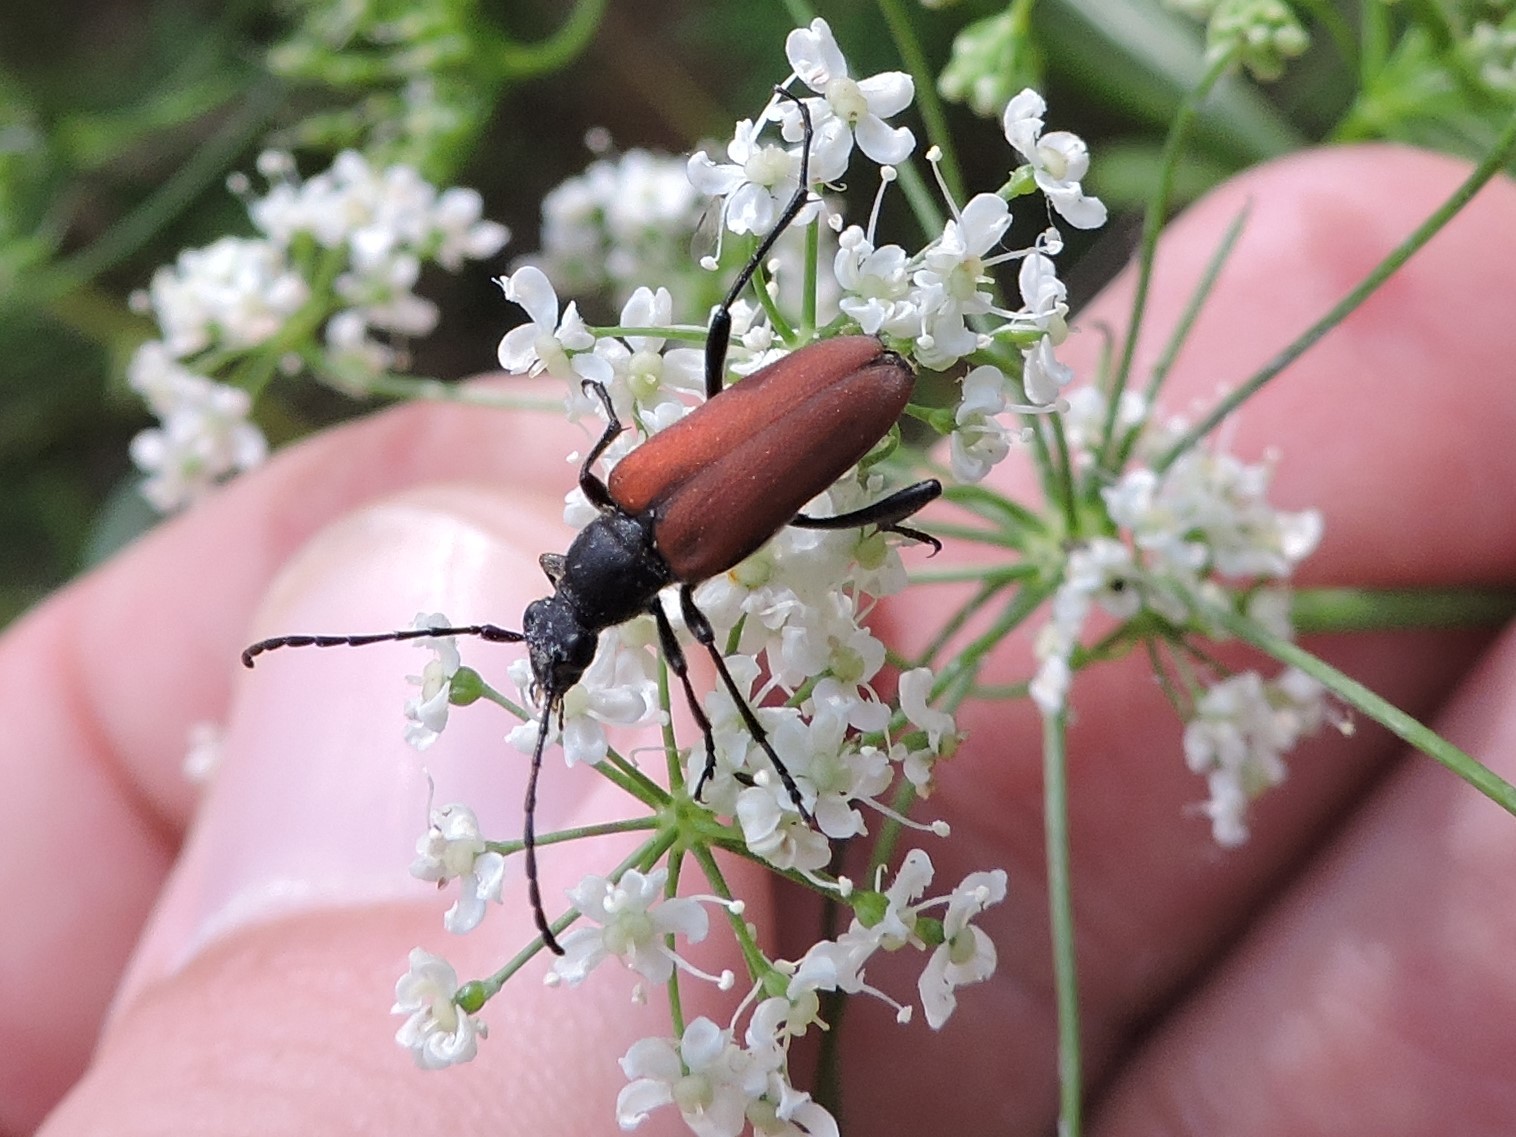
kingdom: Animalia
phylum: Arthropoda
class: Insecta
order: Coleoptera
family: Cerambycidae
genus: Anastrangalia
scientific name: Anastrangalia sanguinolenta
